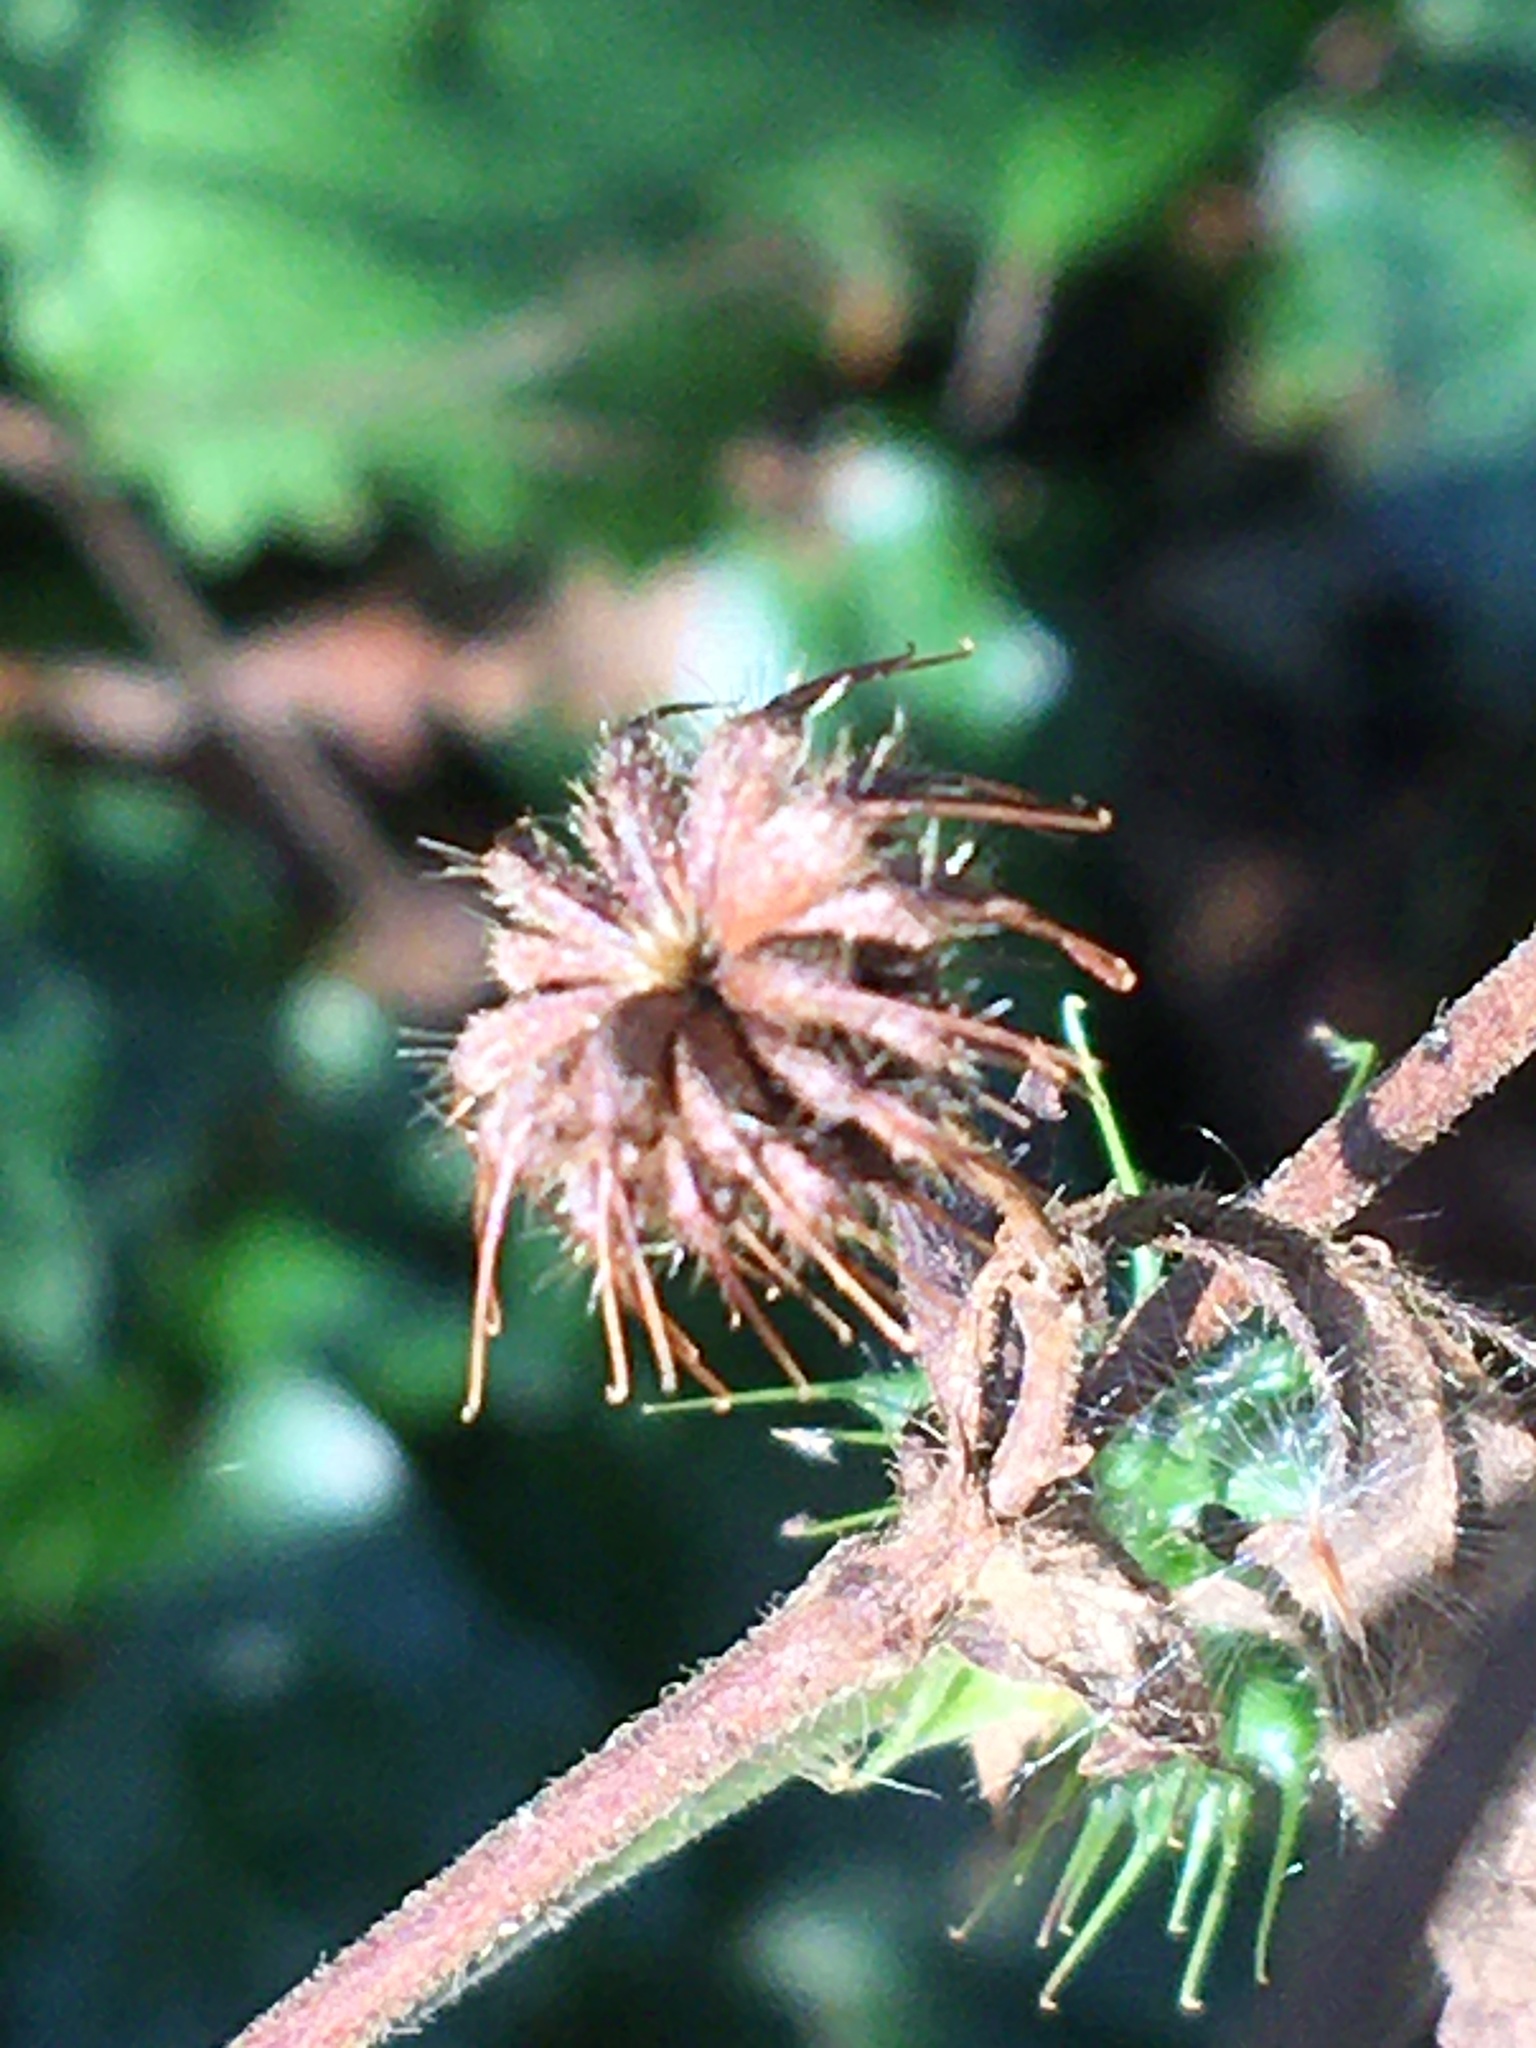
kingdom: Plantae
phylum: Tracheophyta
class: Magnoliopsida
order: Rosales
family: Rosaceae
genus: Geum
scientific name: Geum canadense
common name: White avens
